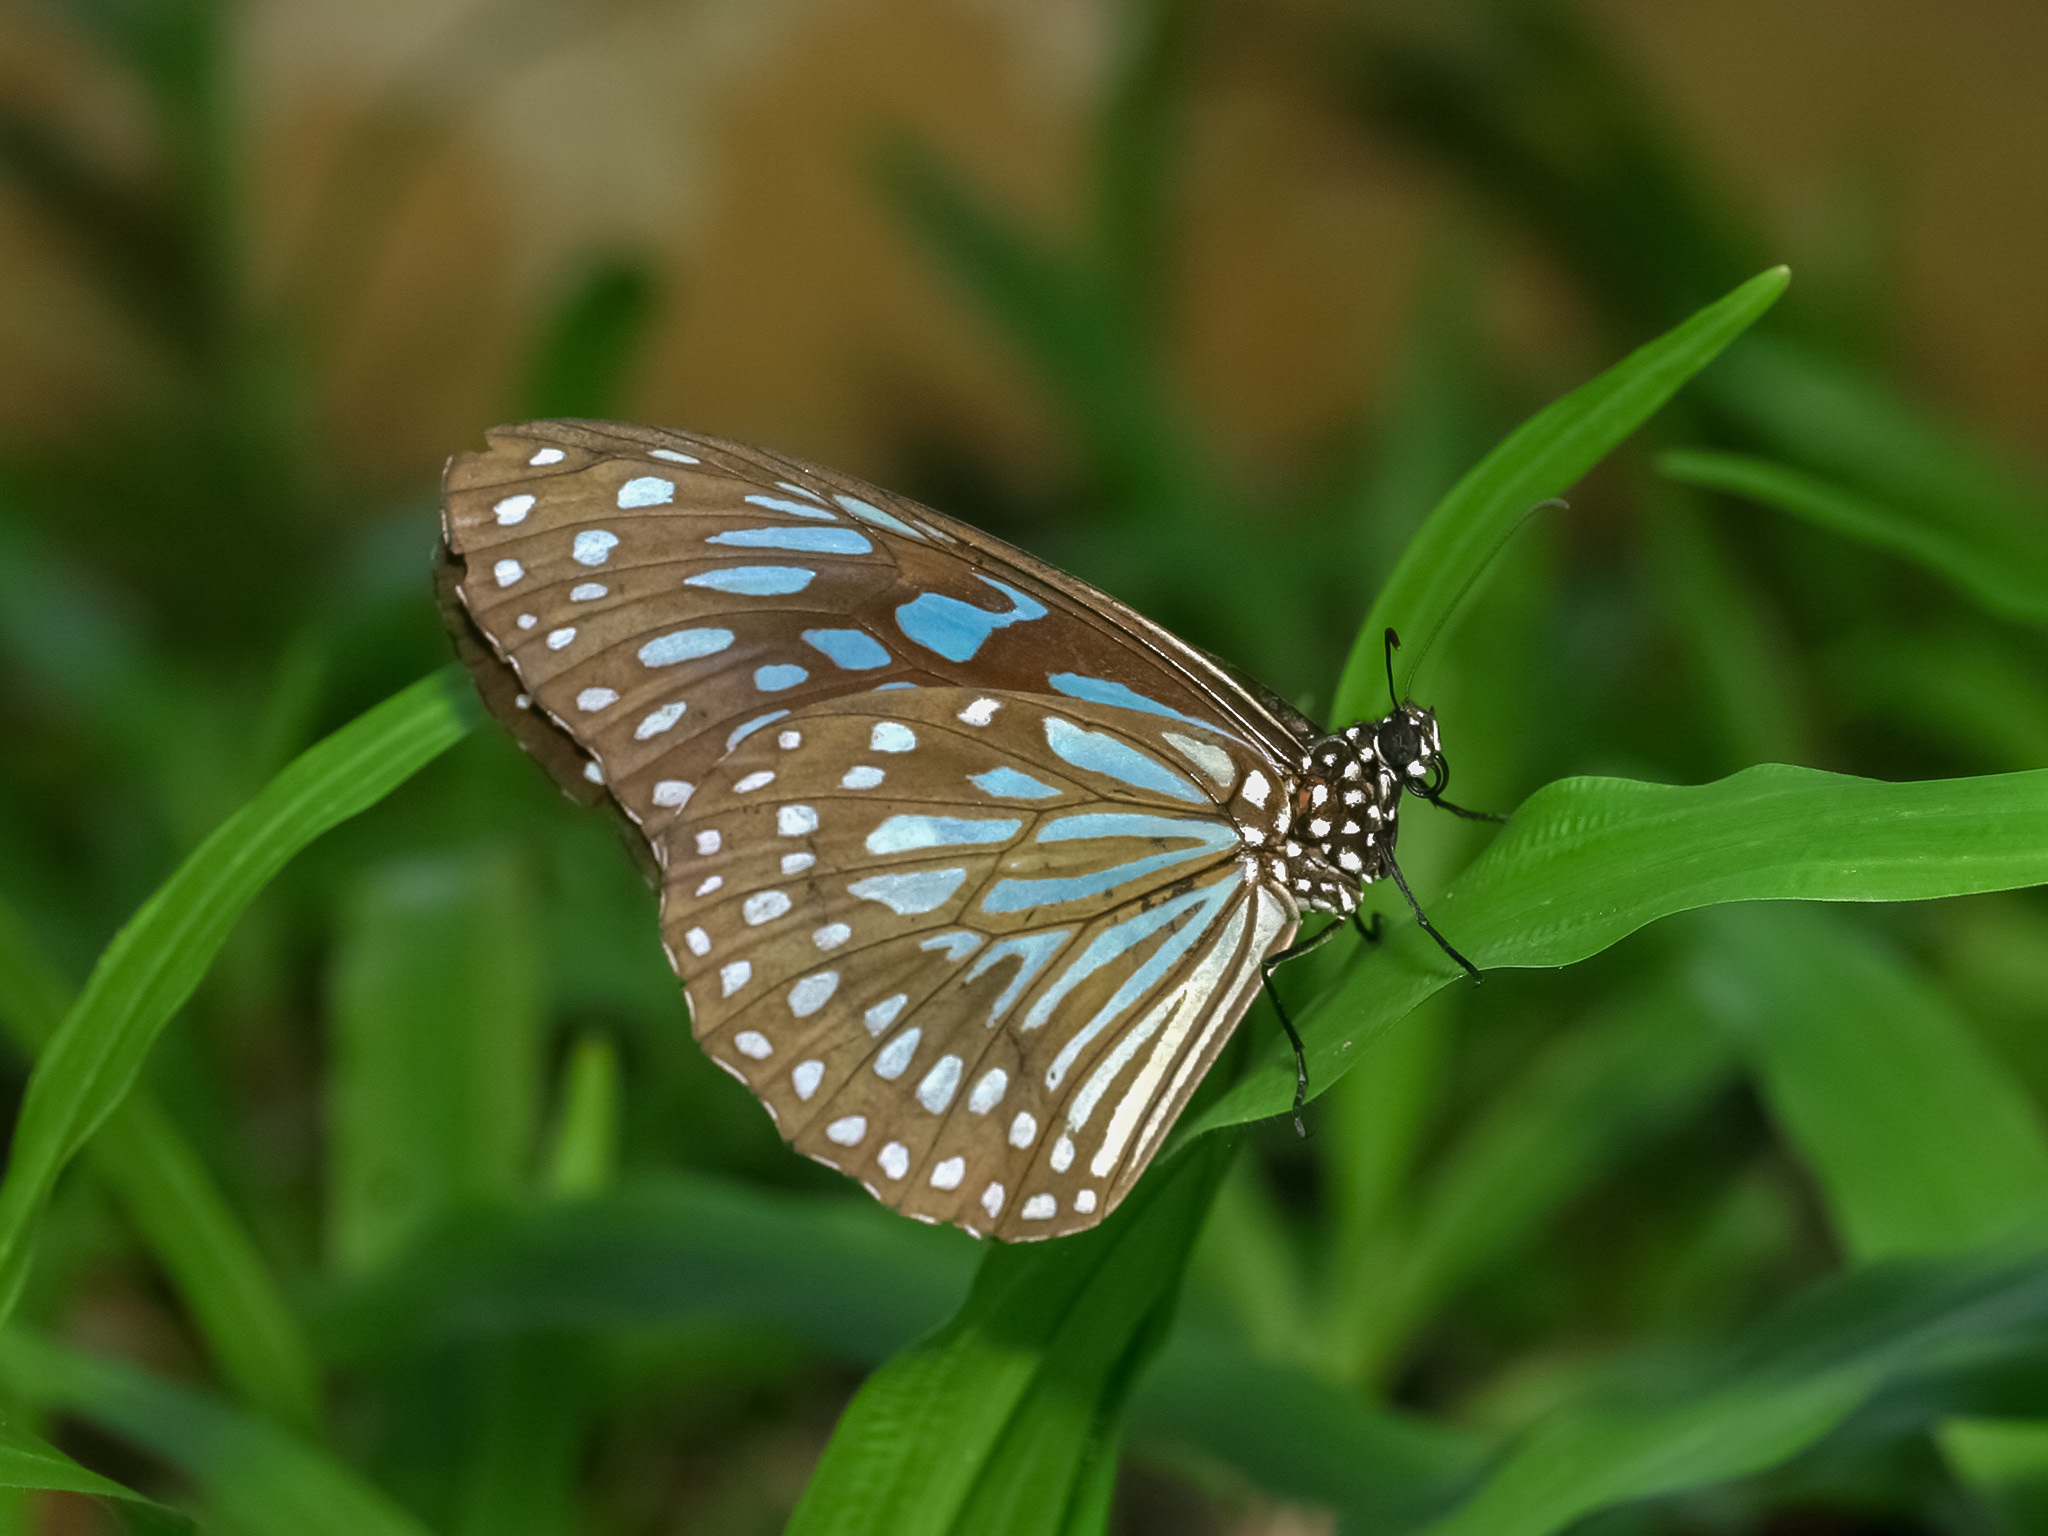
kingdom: Animalia
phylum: Arthropoda
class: Insecta
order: Lepidoptera
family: Nymphalidae
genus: Tirumala
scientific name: Tirumala septentrionis
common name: Dark blue tiger butterfly
